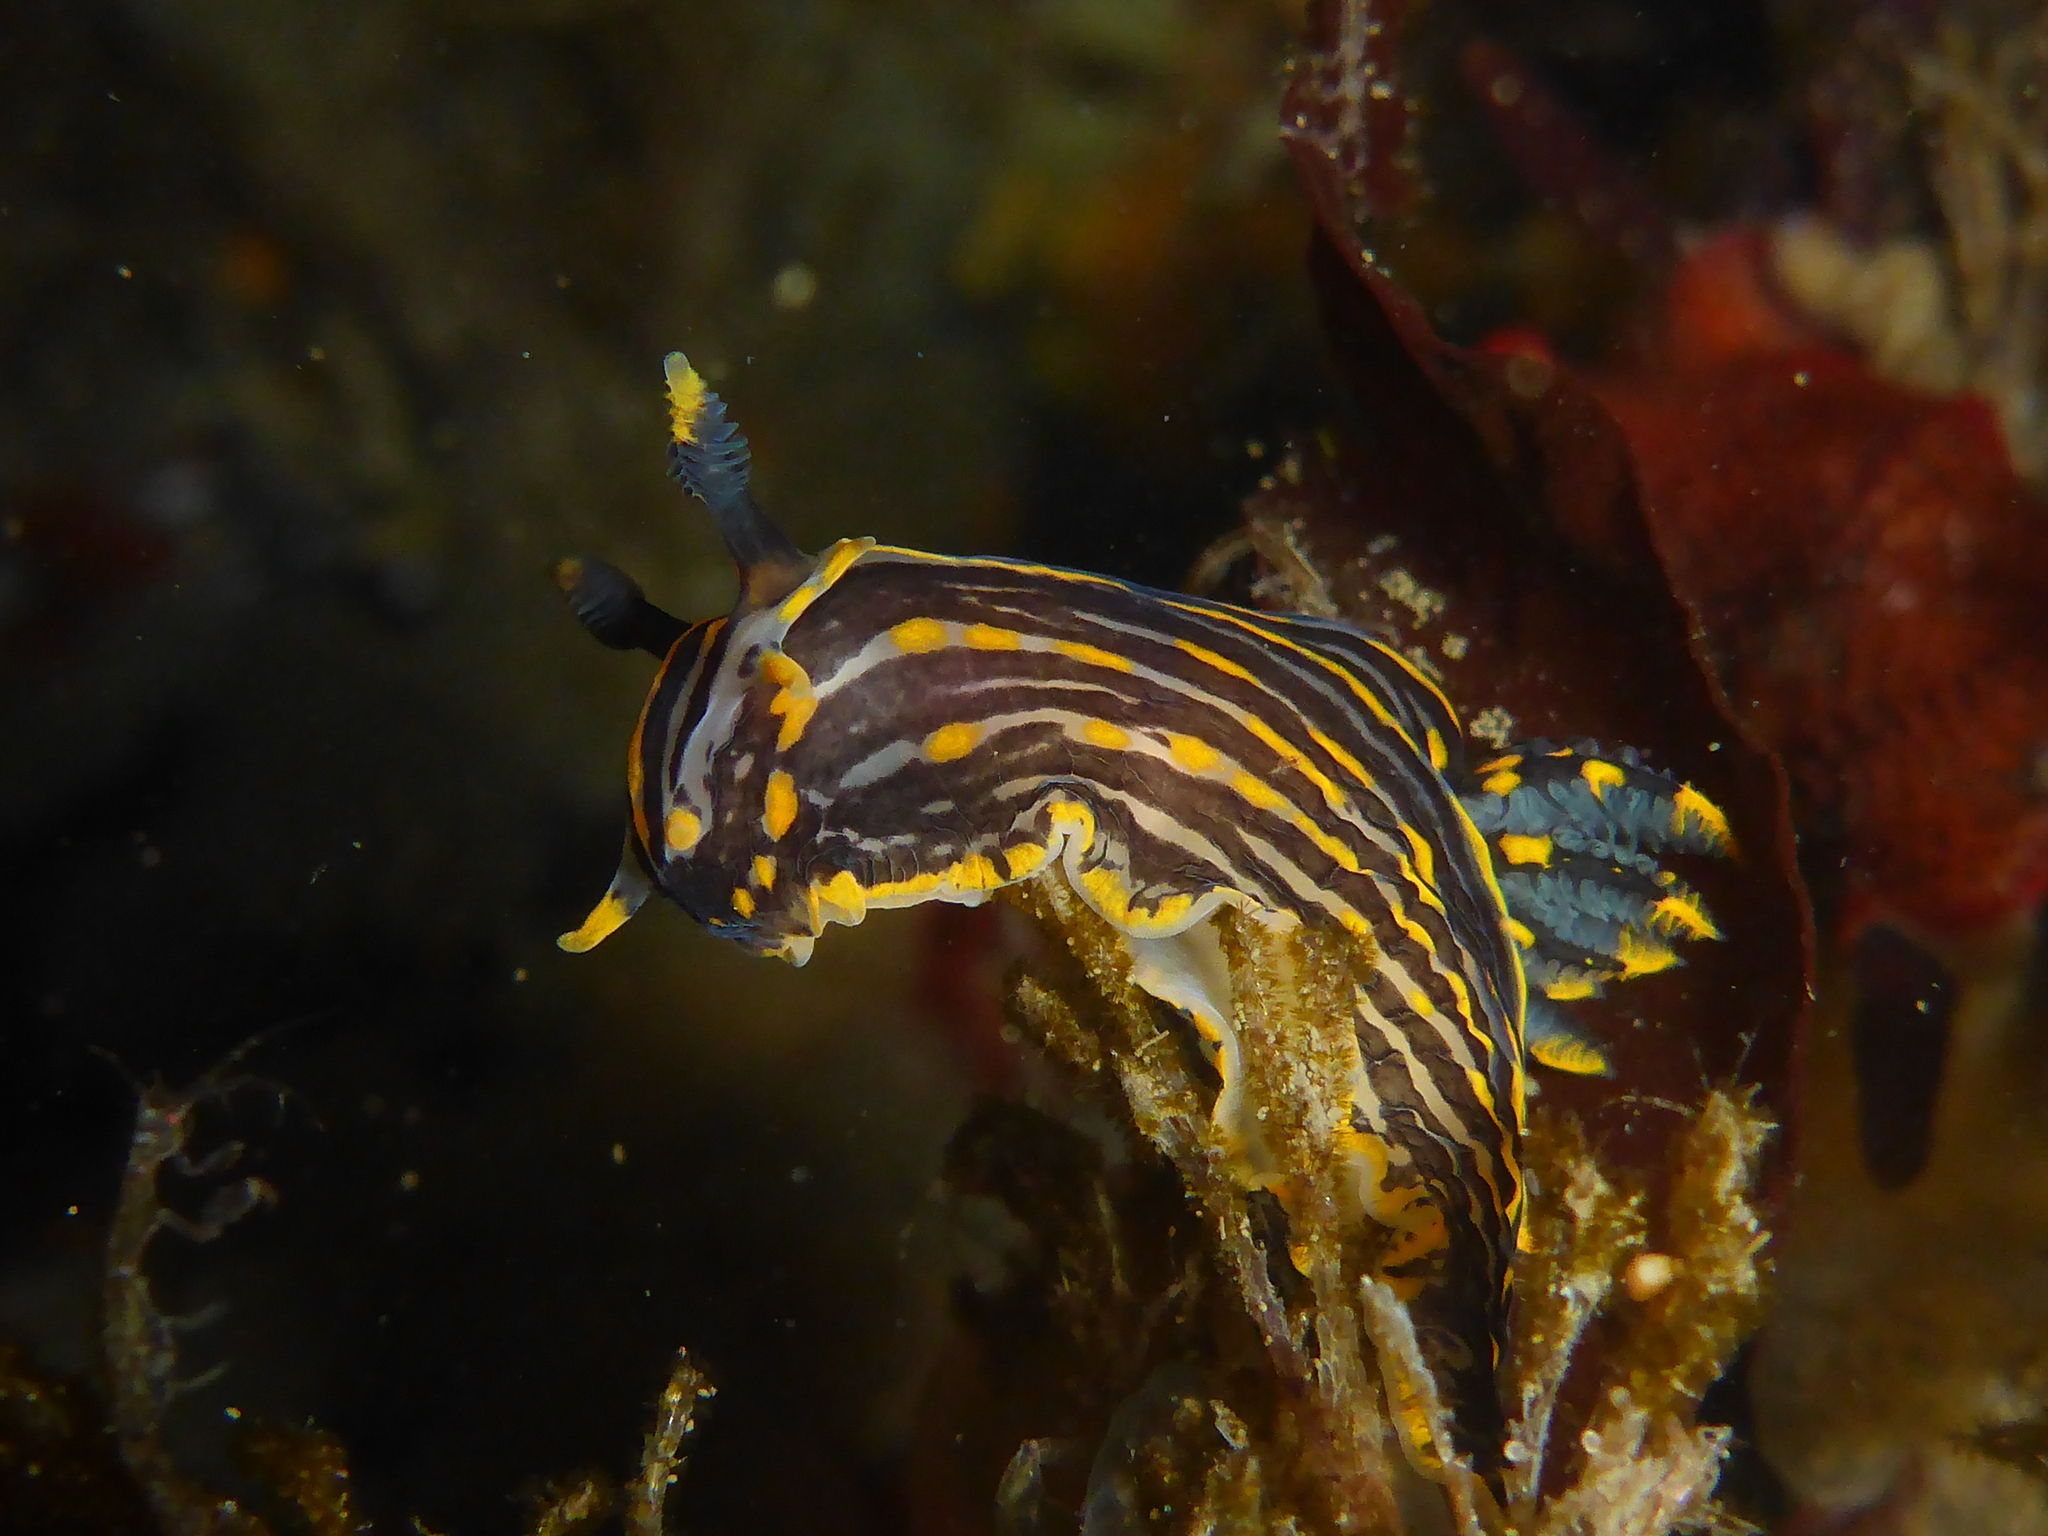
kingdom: Animalia
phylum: Mollusca
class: Gastropoda
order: Nudibranchia
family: Polyceridae
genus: Polycera
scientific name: Polycera atra
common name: Orange-spike polycera
